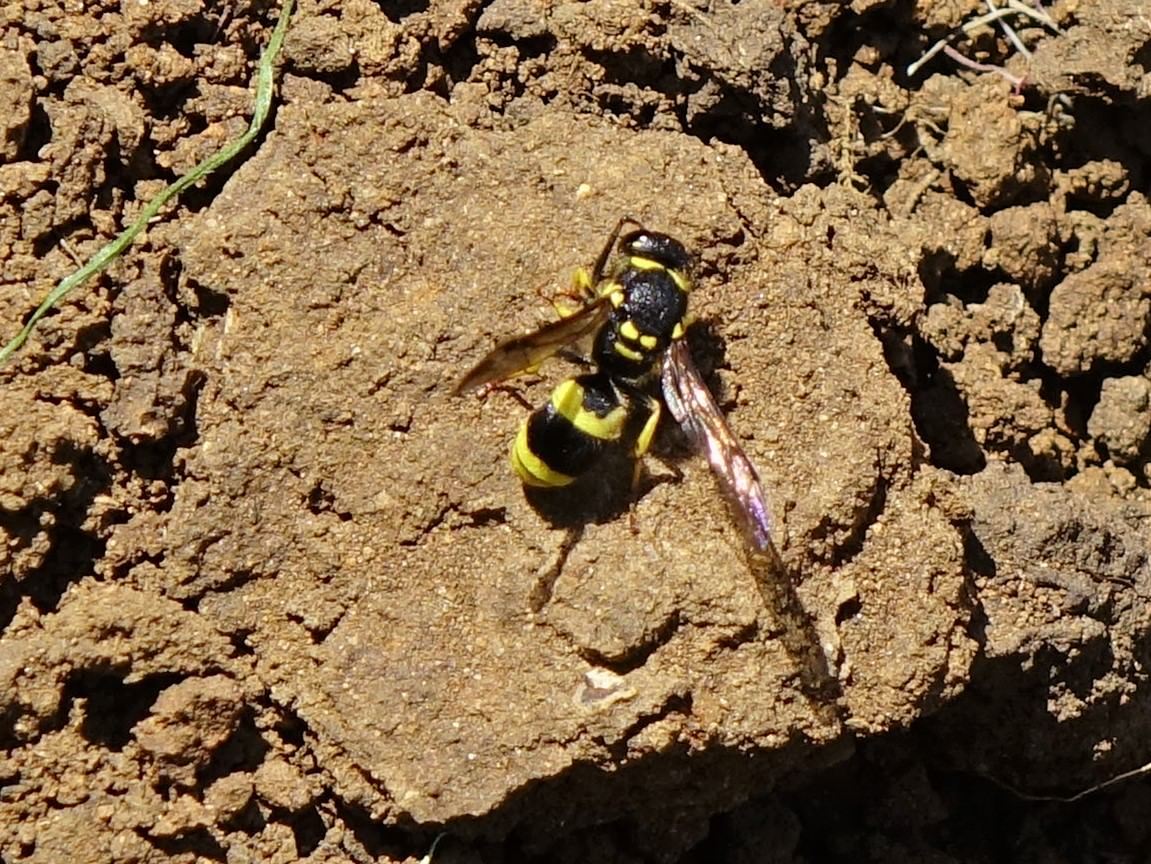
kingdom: Animalia
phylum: Arthropoda
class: Insecta
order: Hymenoptera
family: Vespidae
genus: Ancistrocerus
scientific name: Ancistrocerus gazella
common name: European tube wasp
